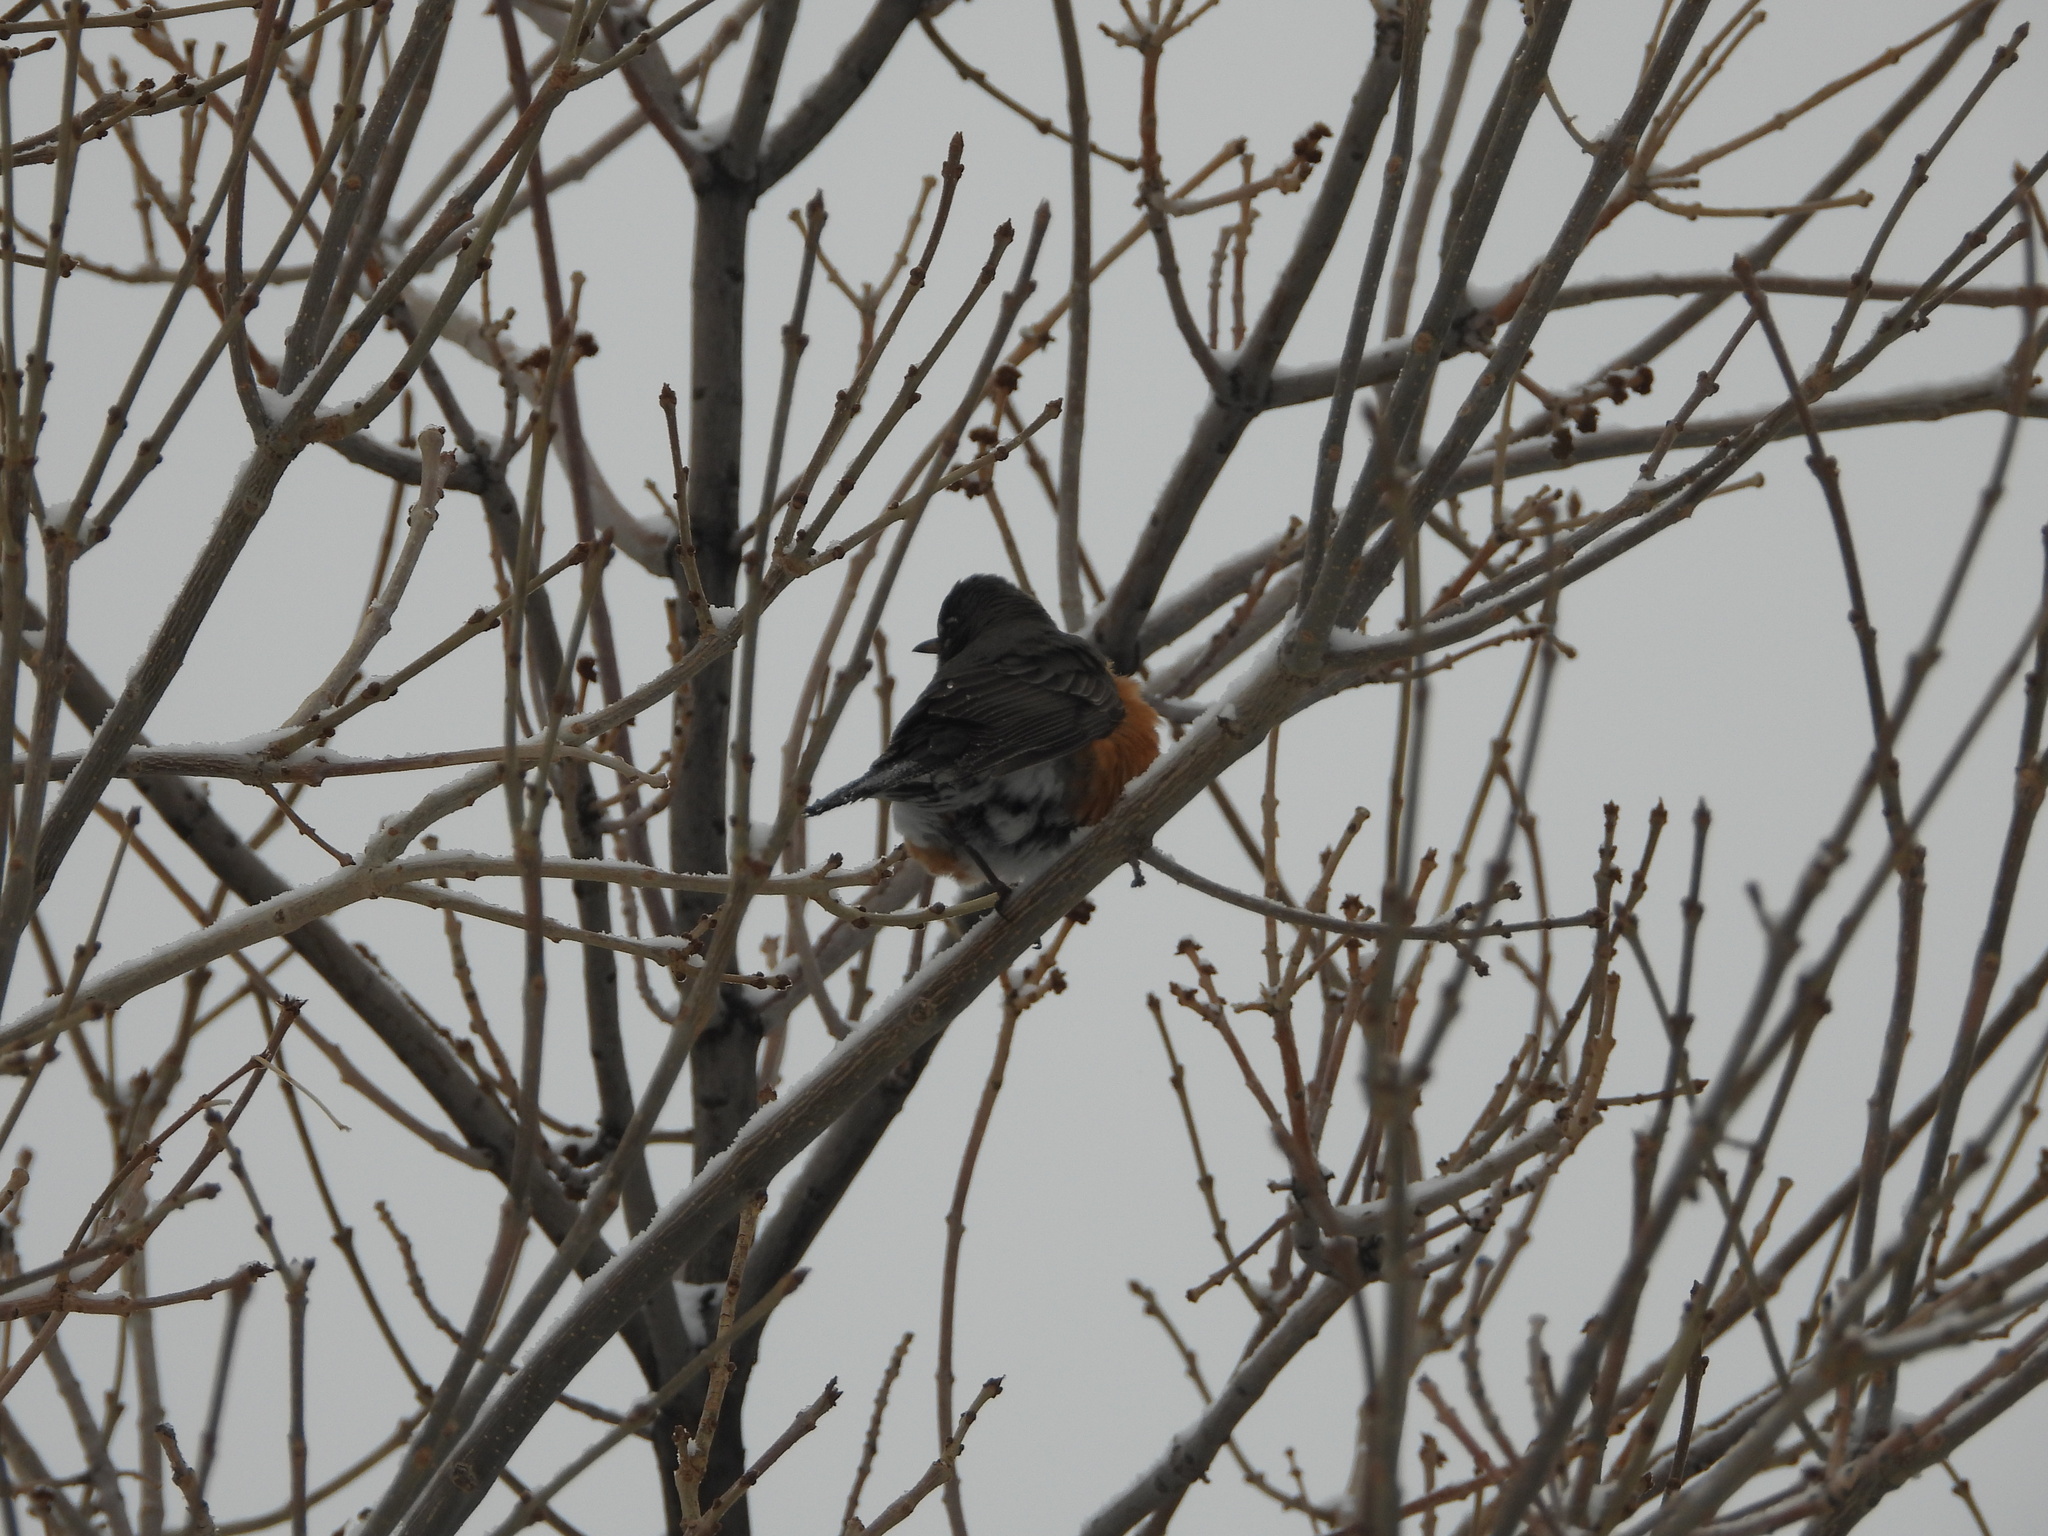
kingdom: Animalia
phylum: Chordata
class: Aves
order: Passeriformes
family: Turdidae
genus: Turdus
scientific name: Turdus migratorius
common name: American robin
